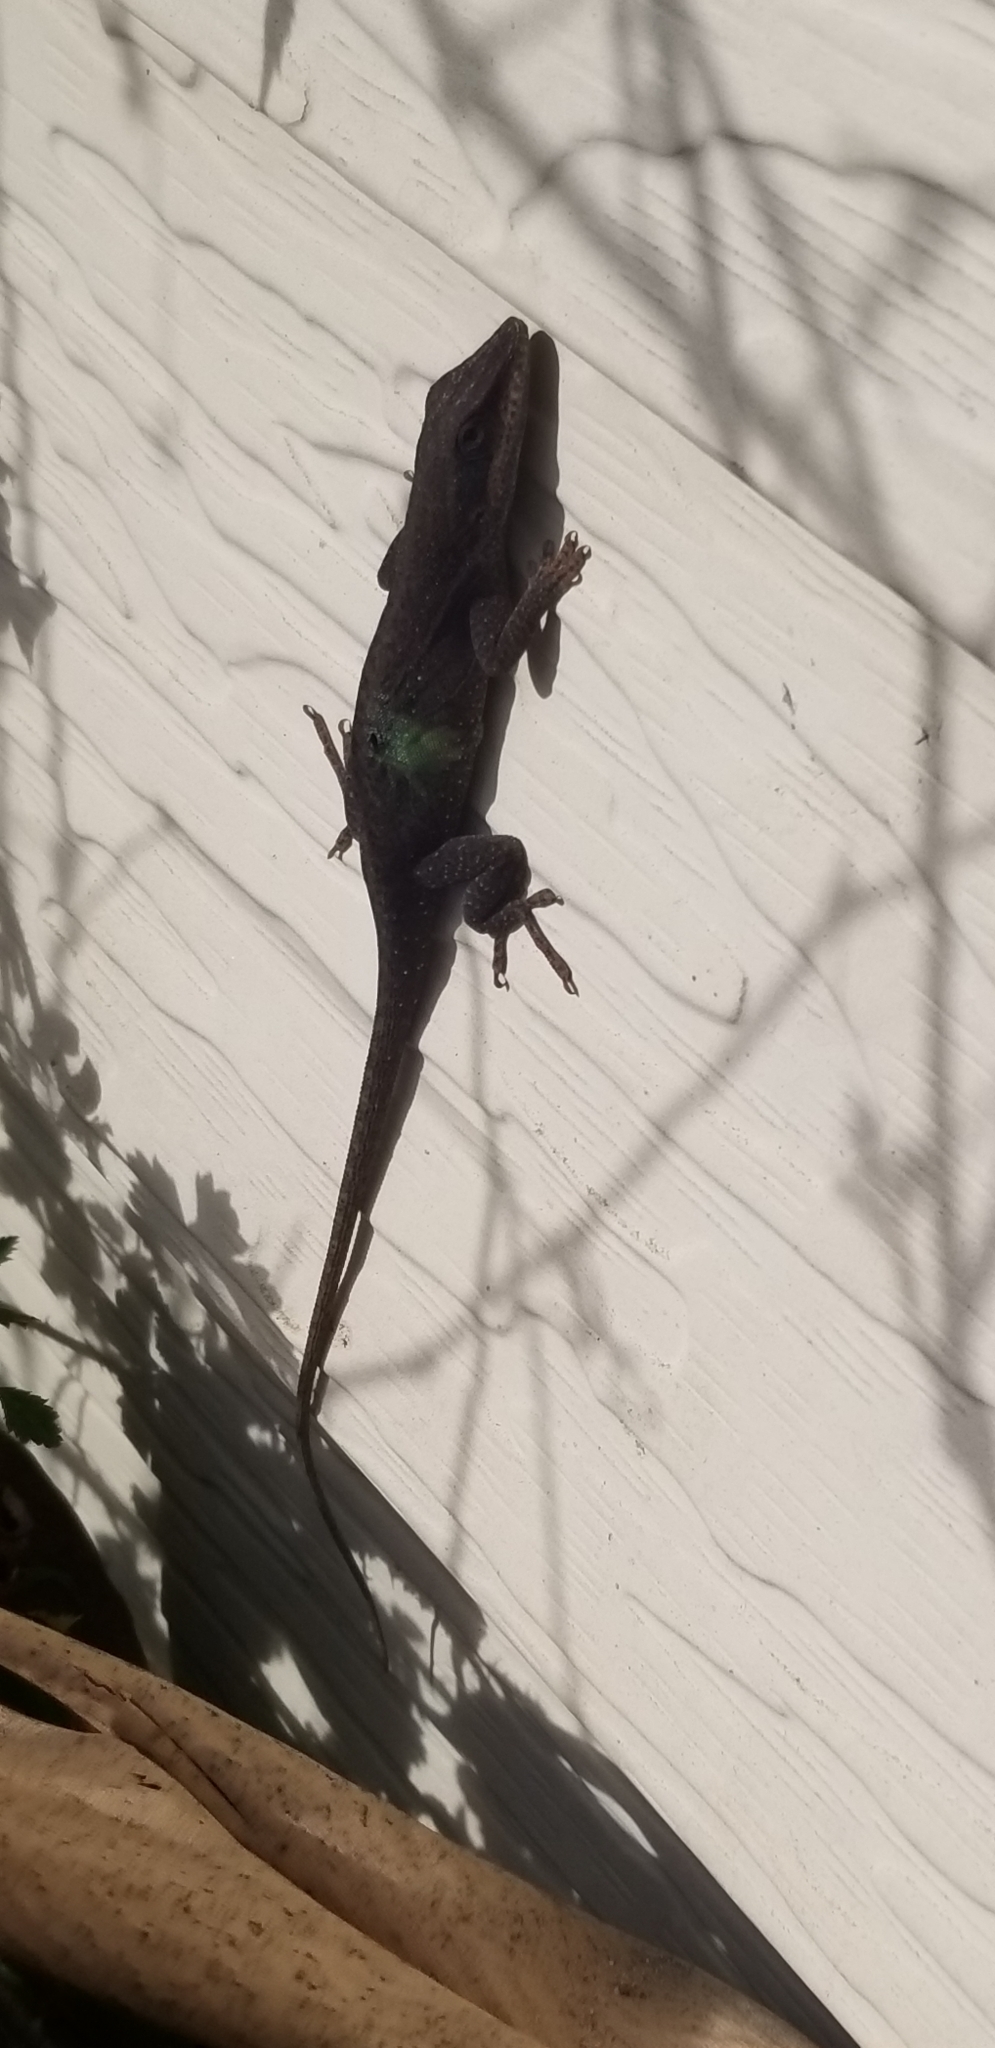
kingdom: Animalia
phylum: Chordata
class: Squamata
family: Dactyloidae
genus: Anolis
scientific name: Anolis carolinensis
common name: Green anole
